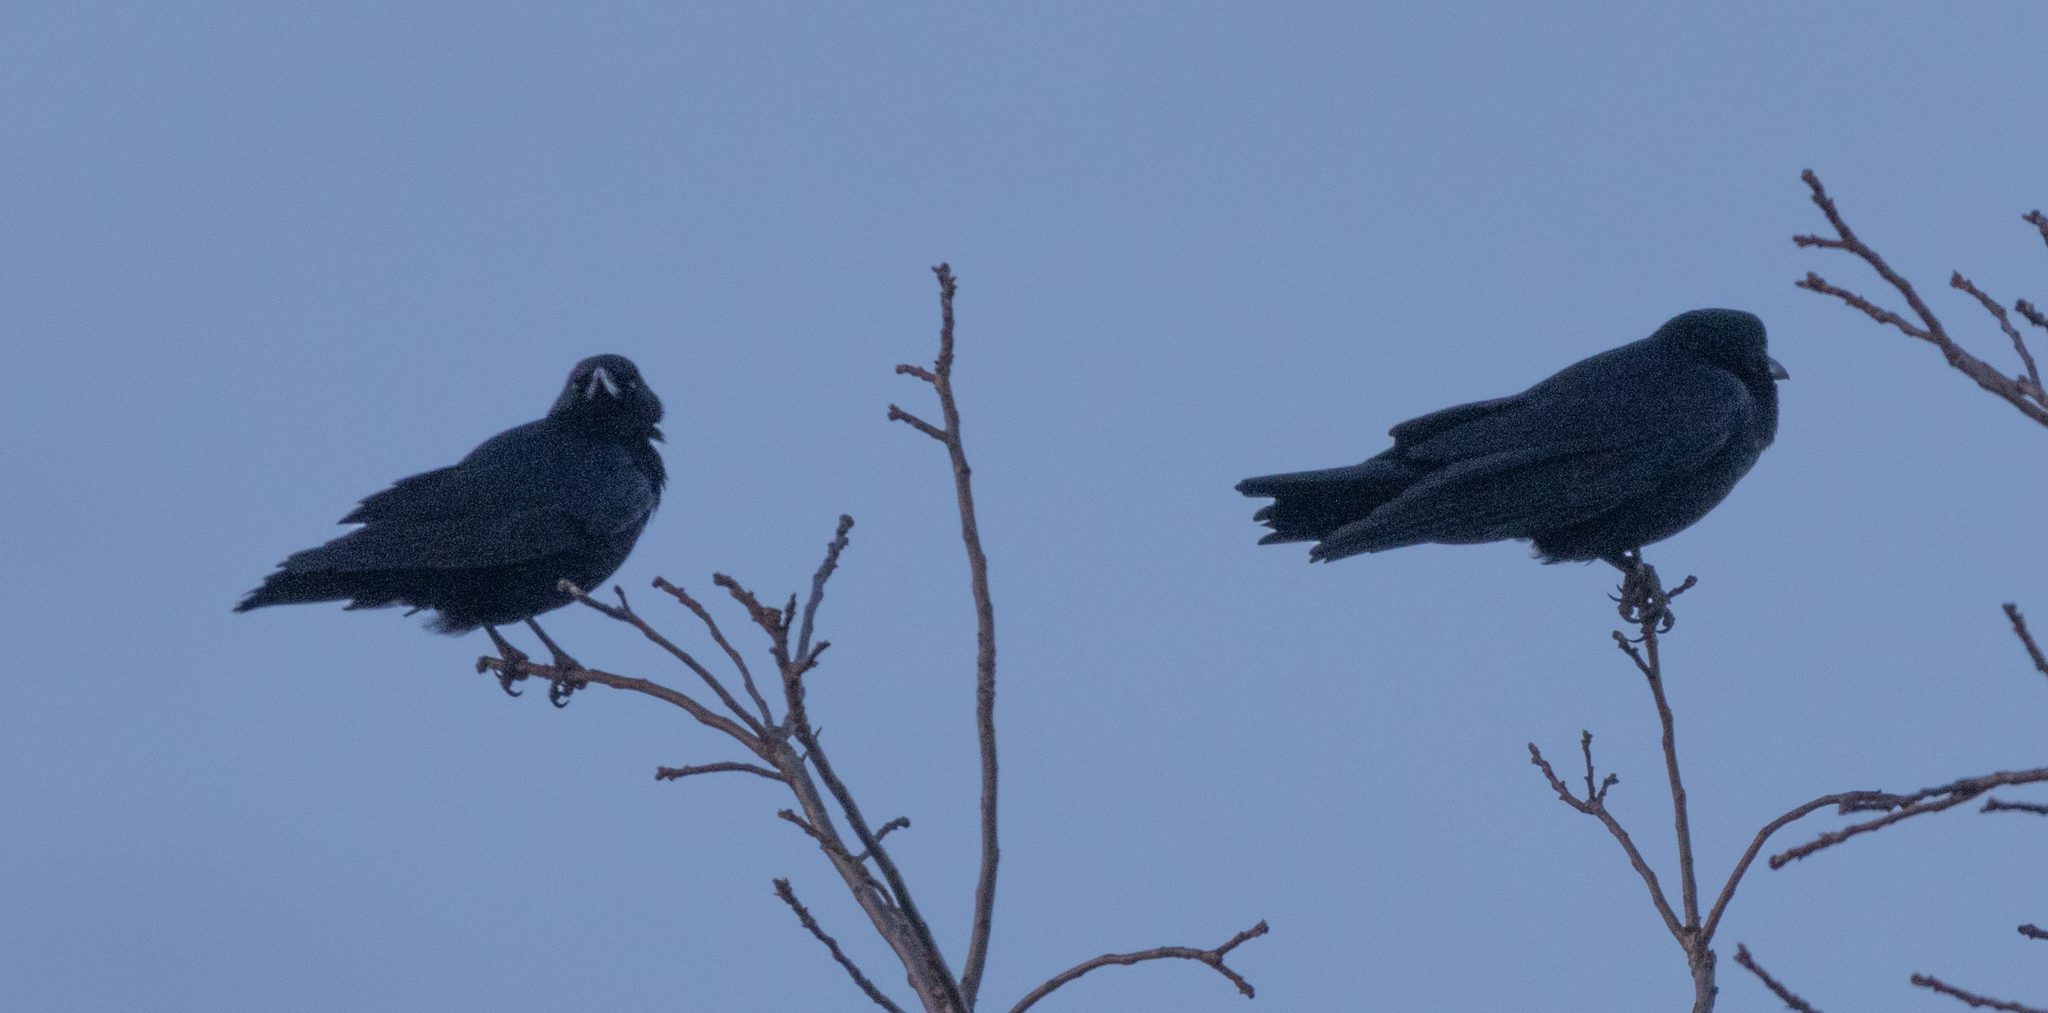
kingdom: Animalia
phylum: Chordata
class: Aves
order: Passeriformes
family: Corvidae
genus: Corvus
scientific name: Corvus brachyrhynchos
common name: American crow
